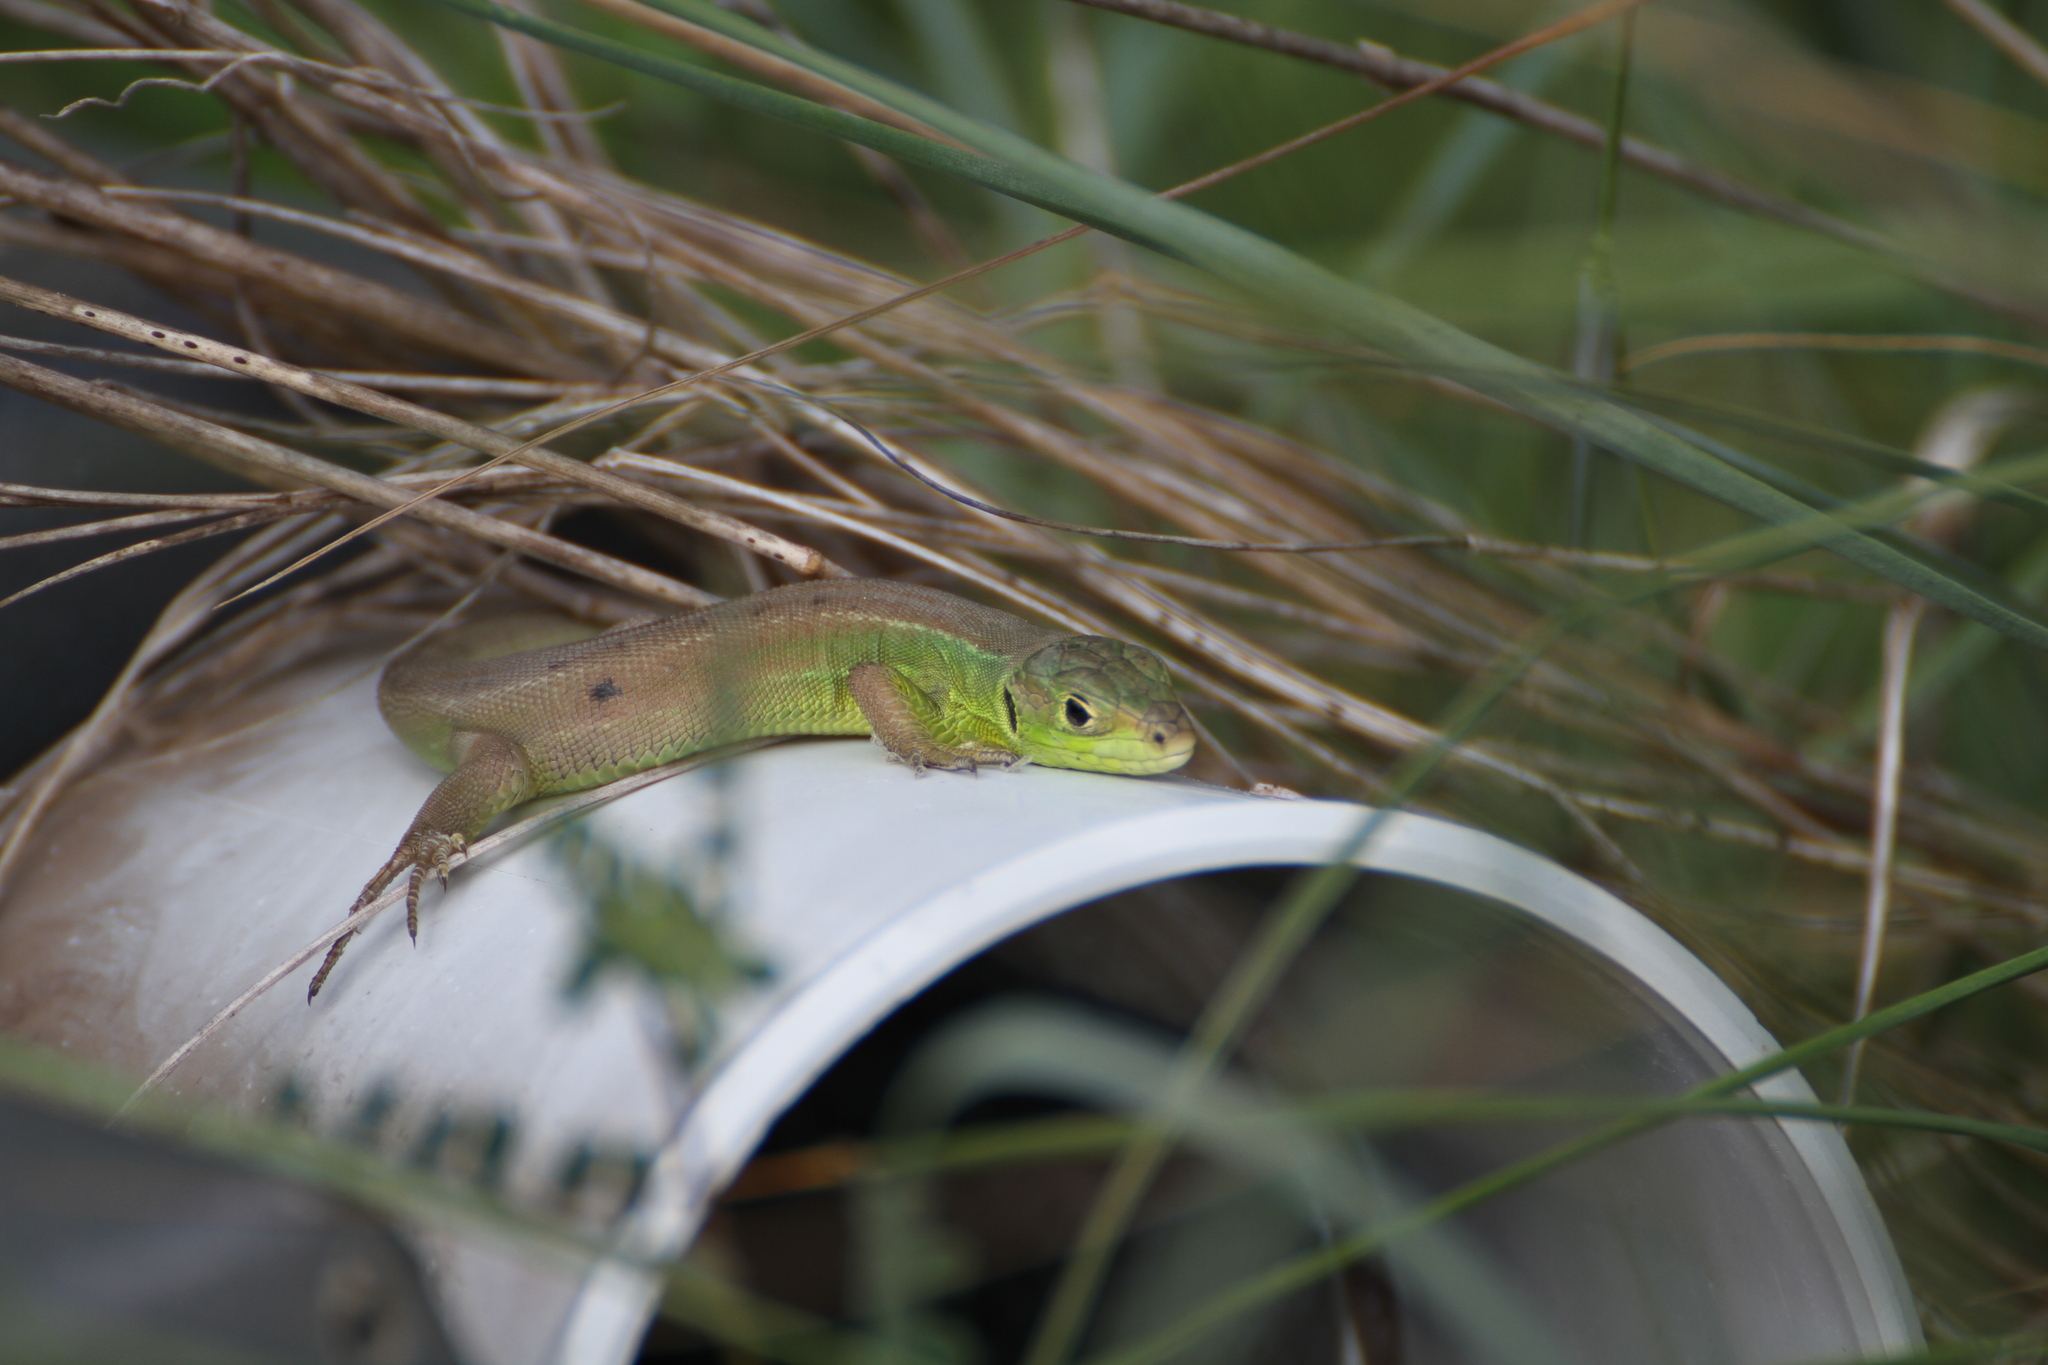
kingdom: Animalia
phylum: Chordata
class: Squamata
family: Lacertidae
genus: Lacerta
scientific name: Lacerta bilineata
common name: Western green lizard
